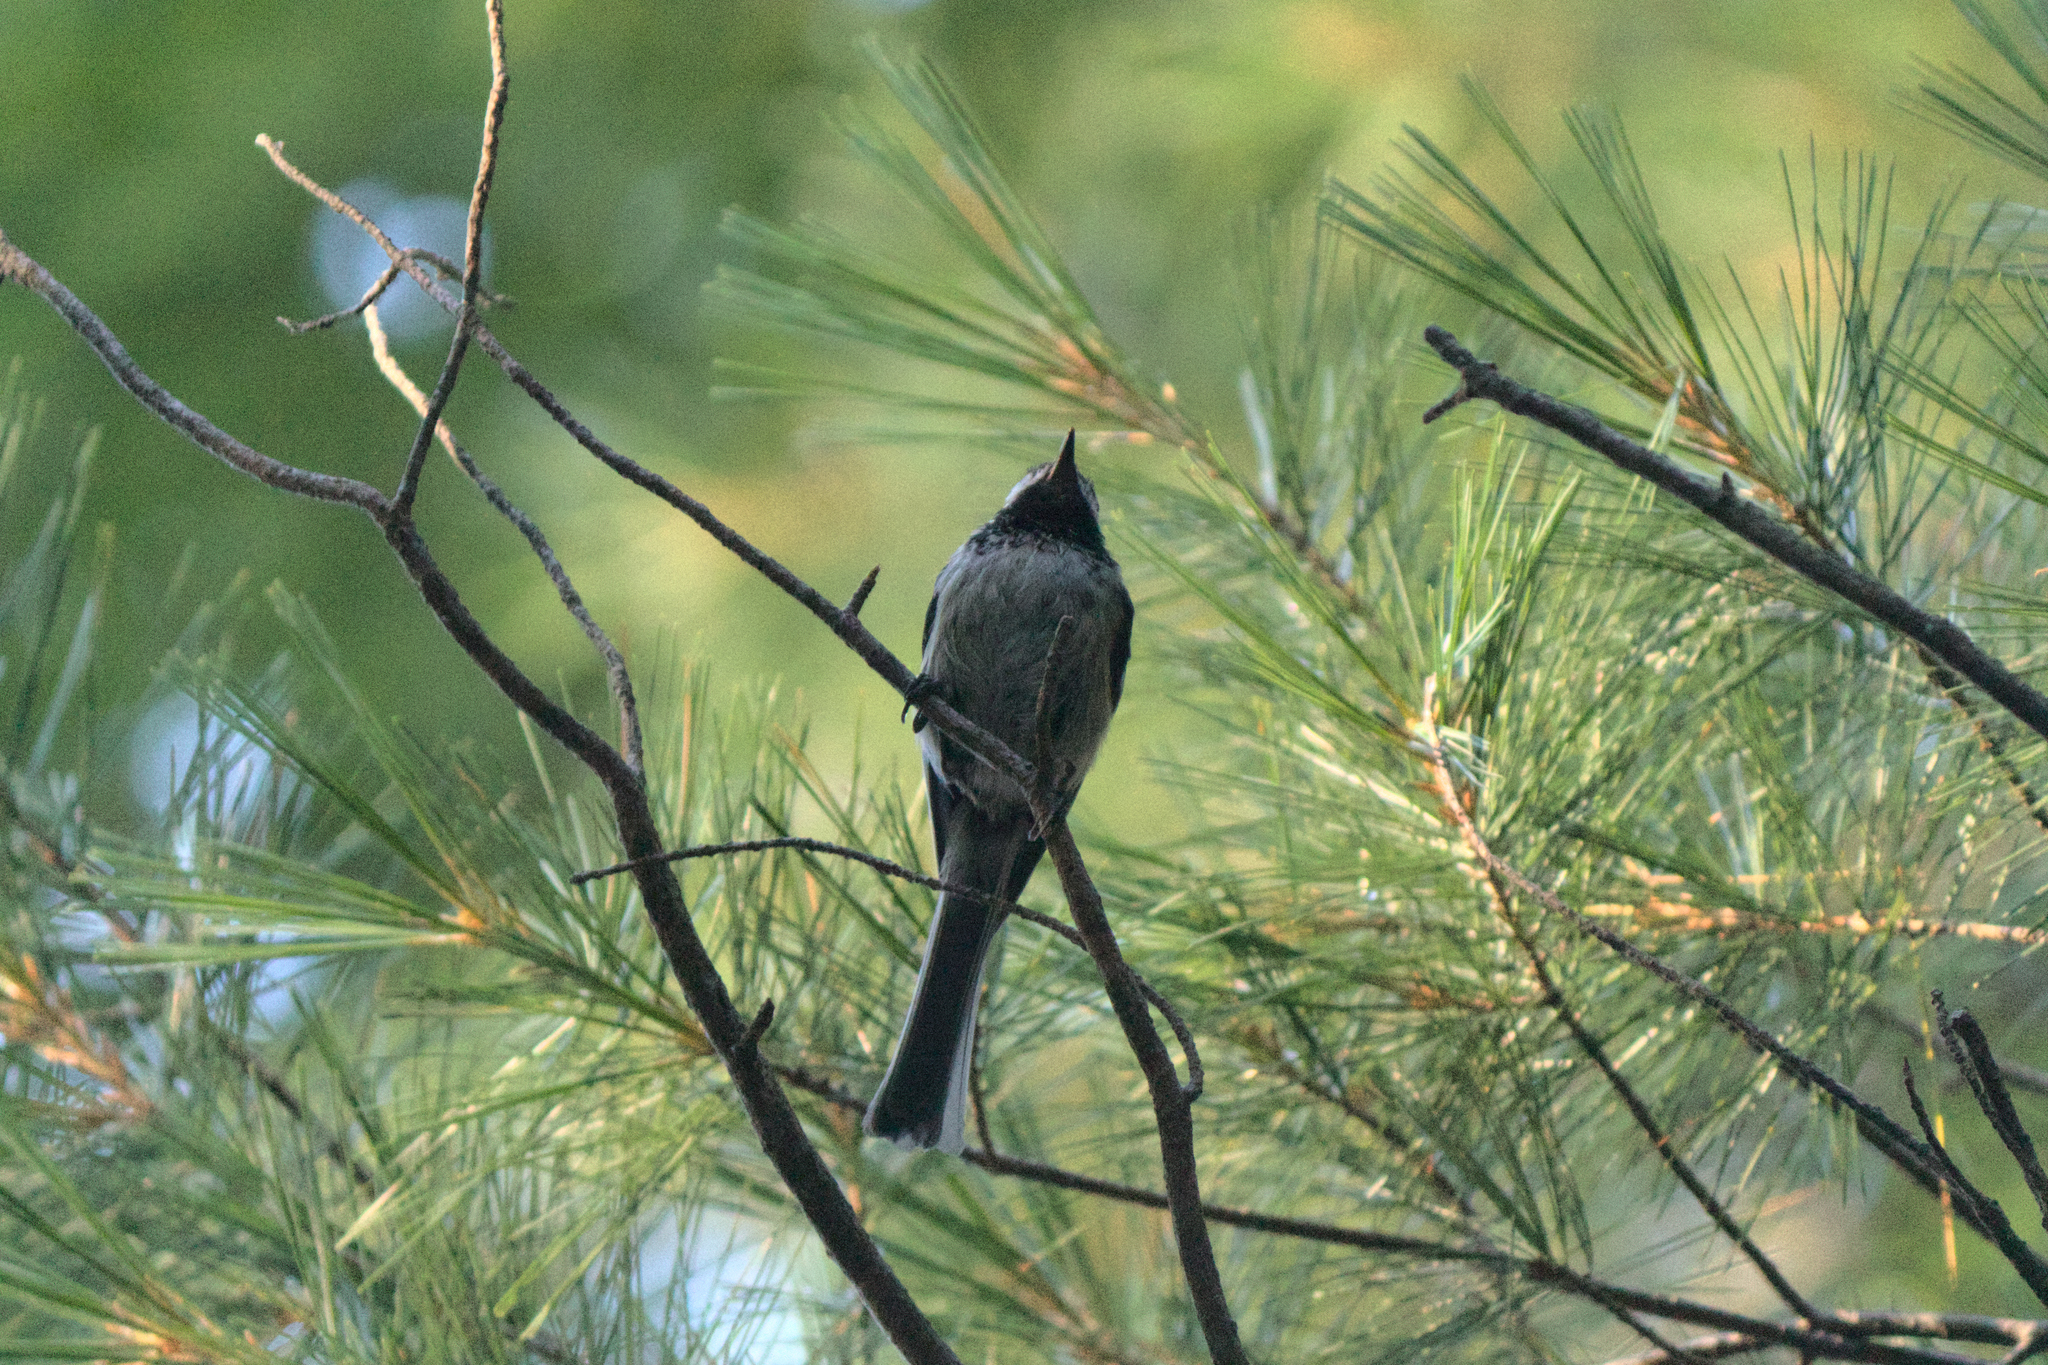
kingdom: Animalia
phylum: Chordata
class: Aves
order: Passeriformes
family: Paridae
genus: Poecile
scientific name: Poecile atricapillus
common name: Black-capped chickadee
